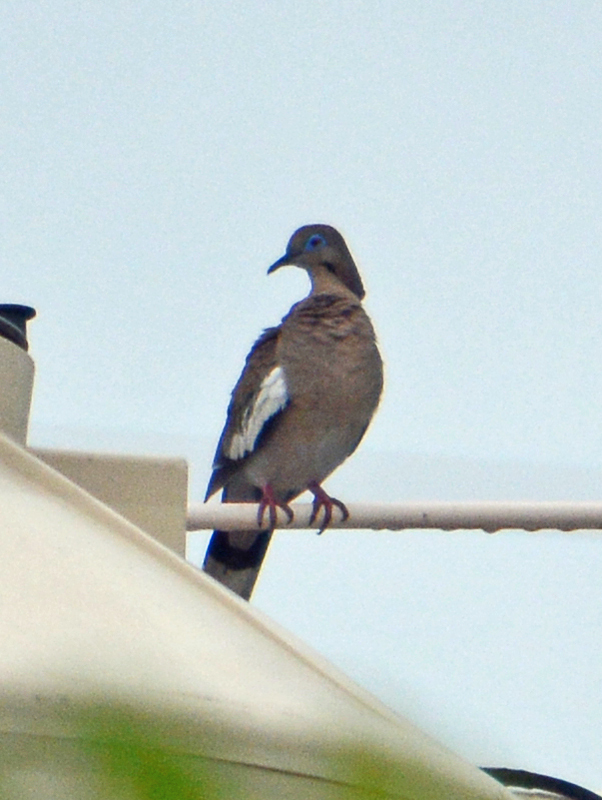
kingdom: Animalia
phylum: Chordata
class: Aves
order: Columbiformes
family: Columbidae
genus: Zenaida
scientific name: Zenaida asiatica
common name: White-winged dove
